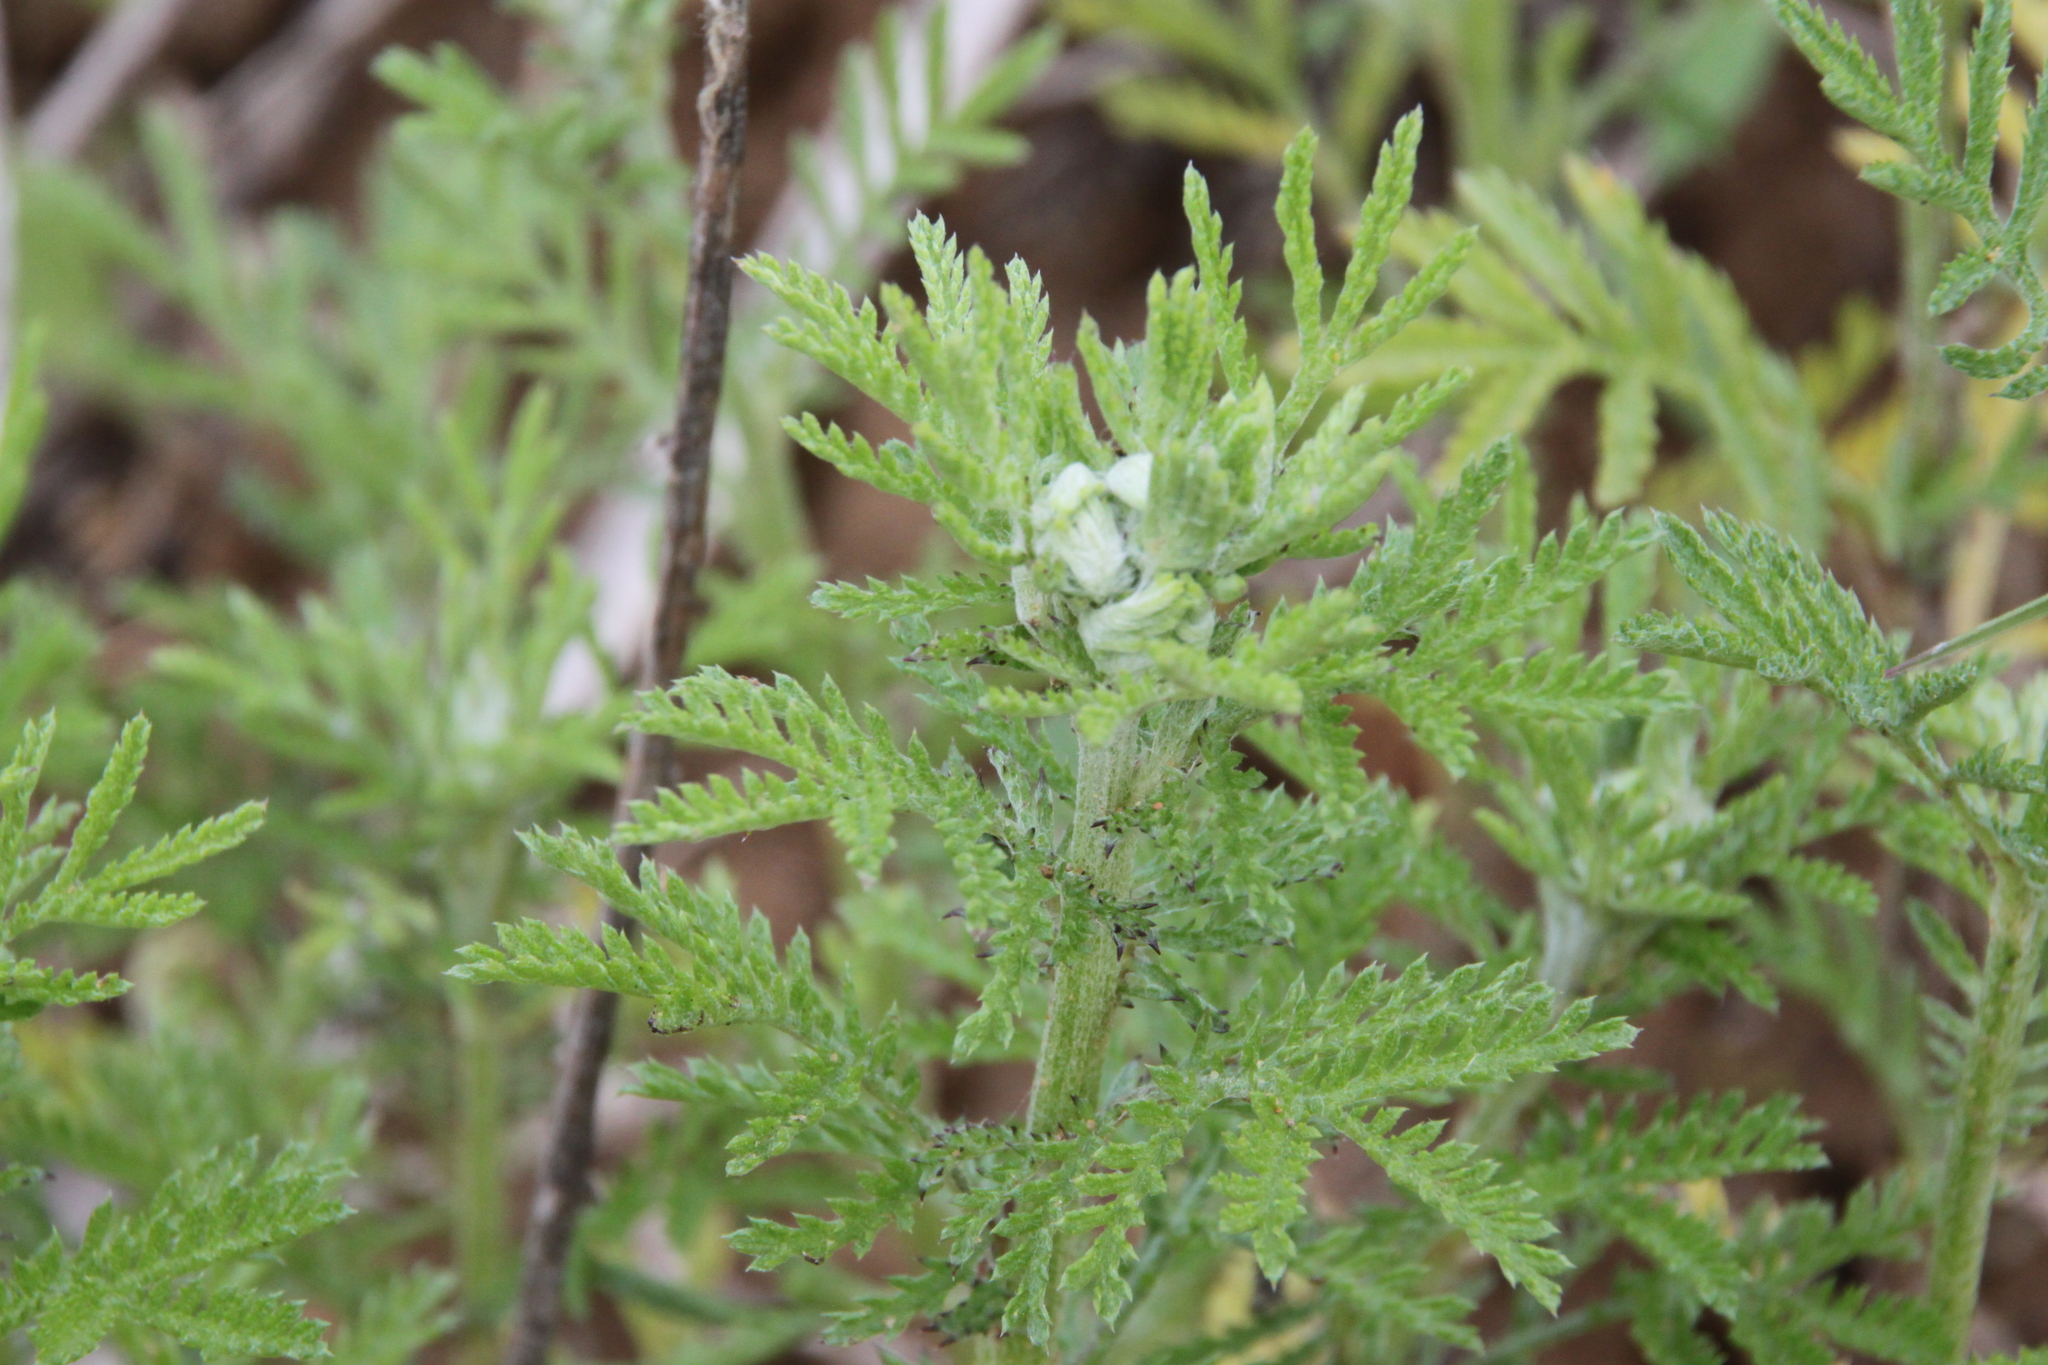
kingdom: Plantae
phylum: Tracheophyta
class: Magnoliopsida
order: Asterales
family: Asteraceae
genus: Cota
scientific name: Cota tinctoria
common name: Golden chamomile
